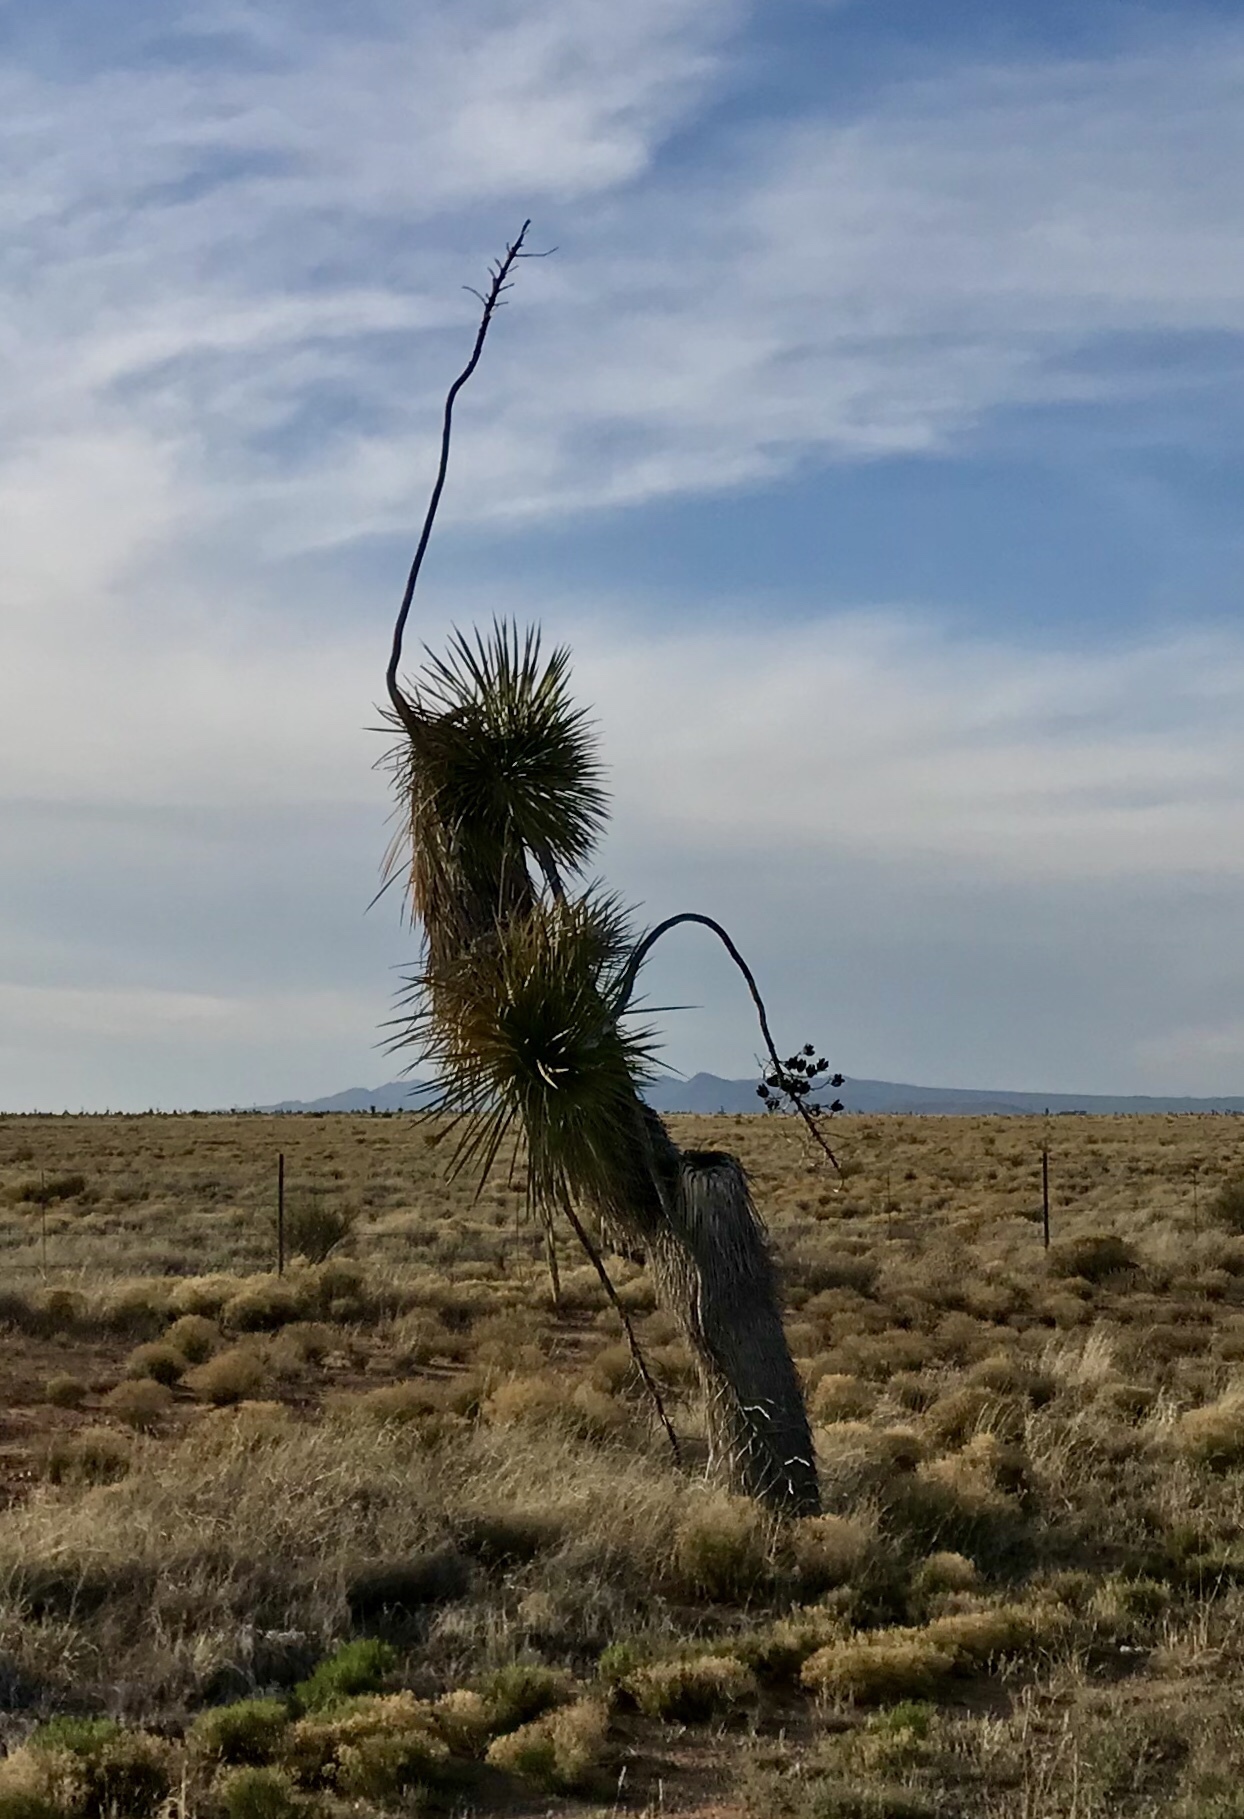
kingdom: Plantae
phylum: Tracheophyta
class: Liliopsida
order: Asparagales
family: Asparagaceae
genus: Yucca
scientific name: Yucca elata
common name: Palmella
